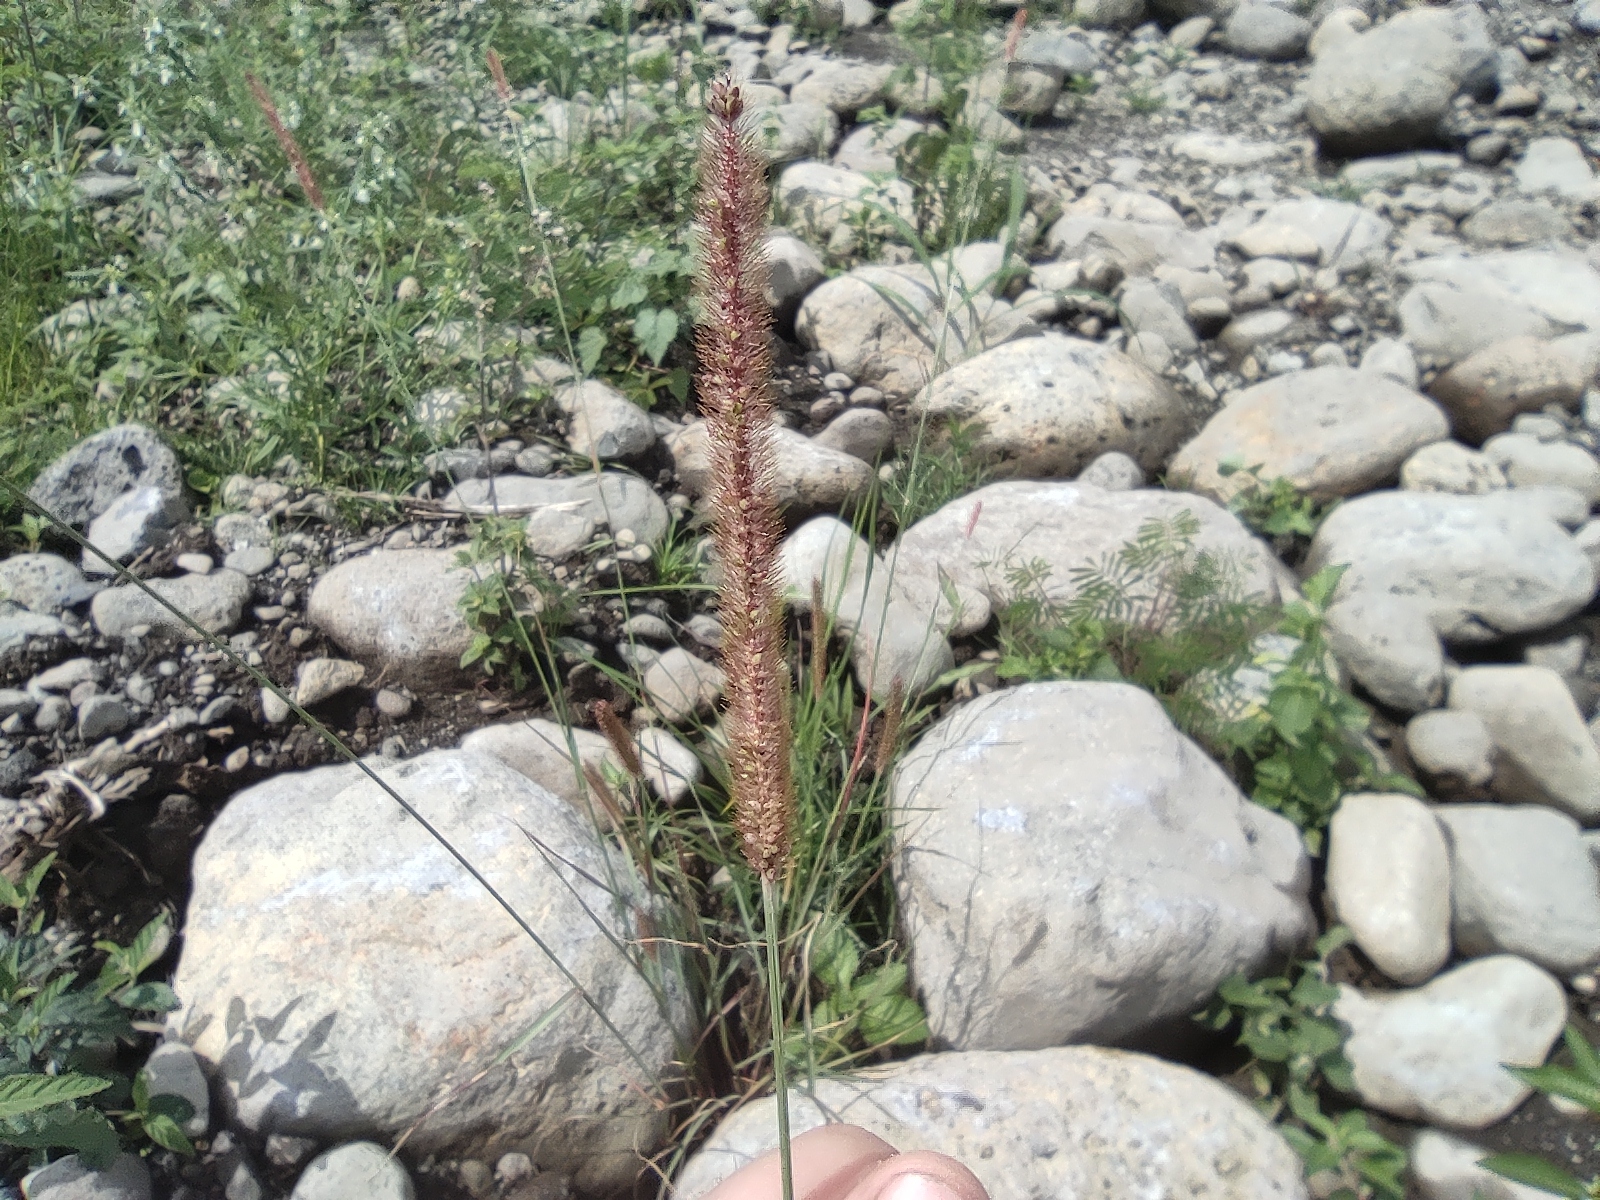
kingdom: Plantae
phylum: Tracheophyta
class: Liliopsida
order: Poales
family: Poaceae
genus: Setaria
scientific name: Setaria sphacelata
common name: African bristlegrass
